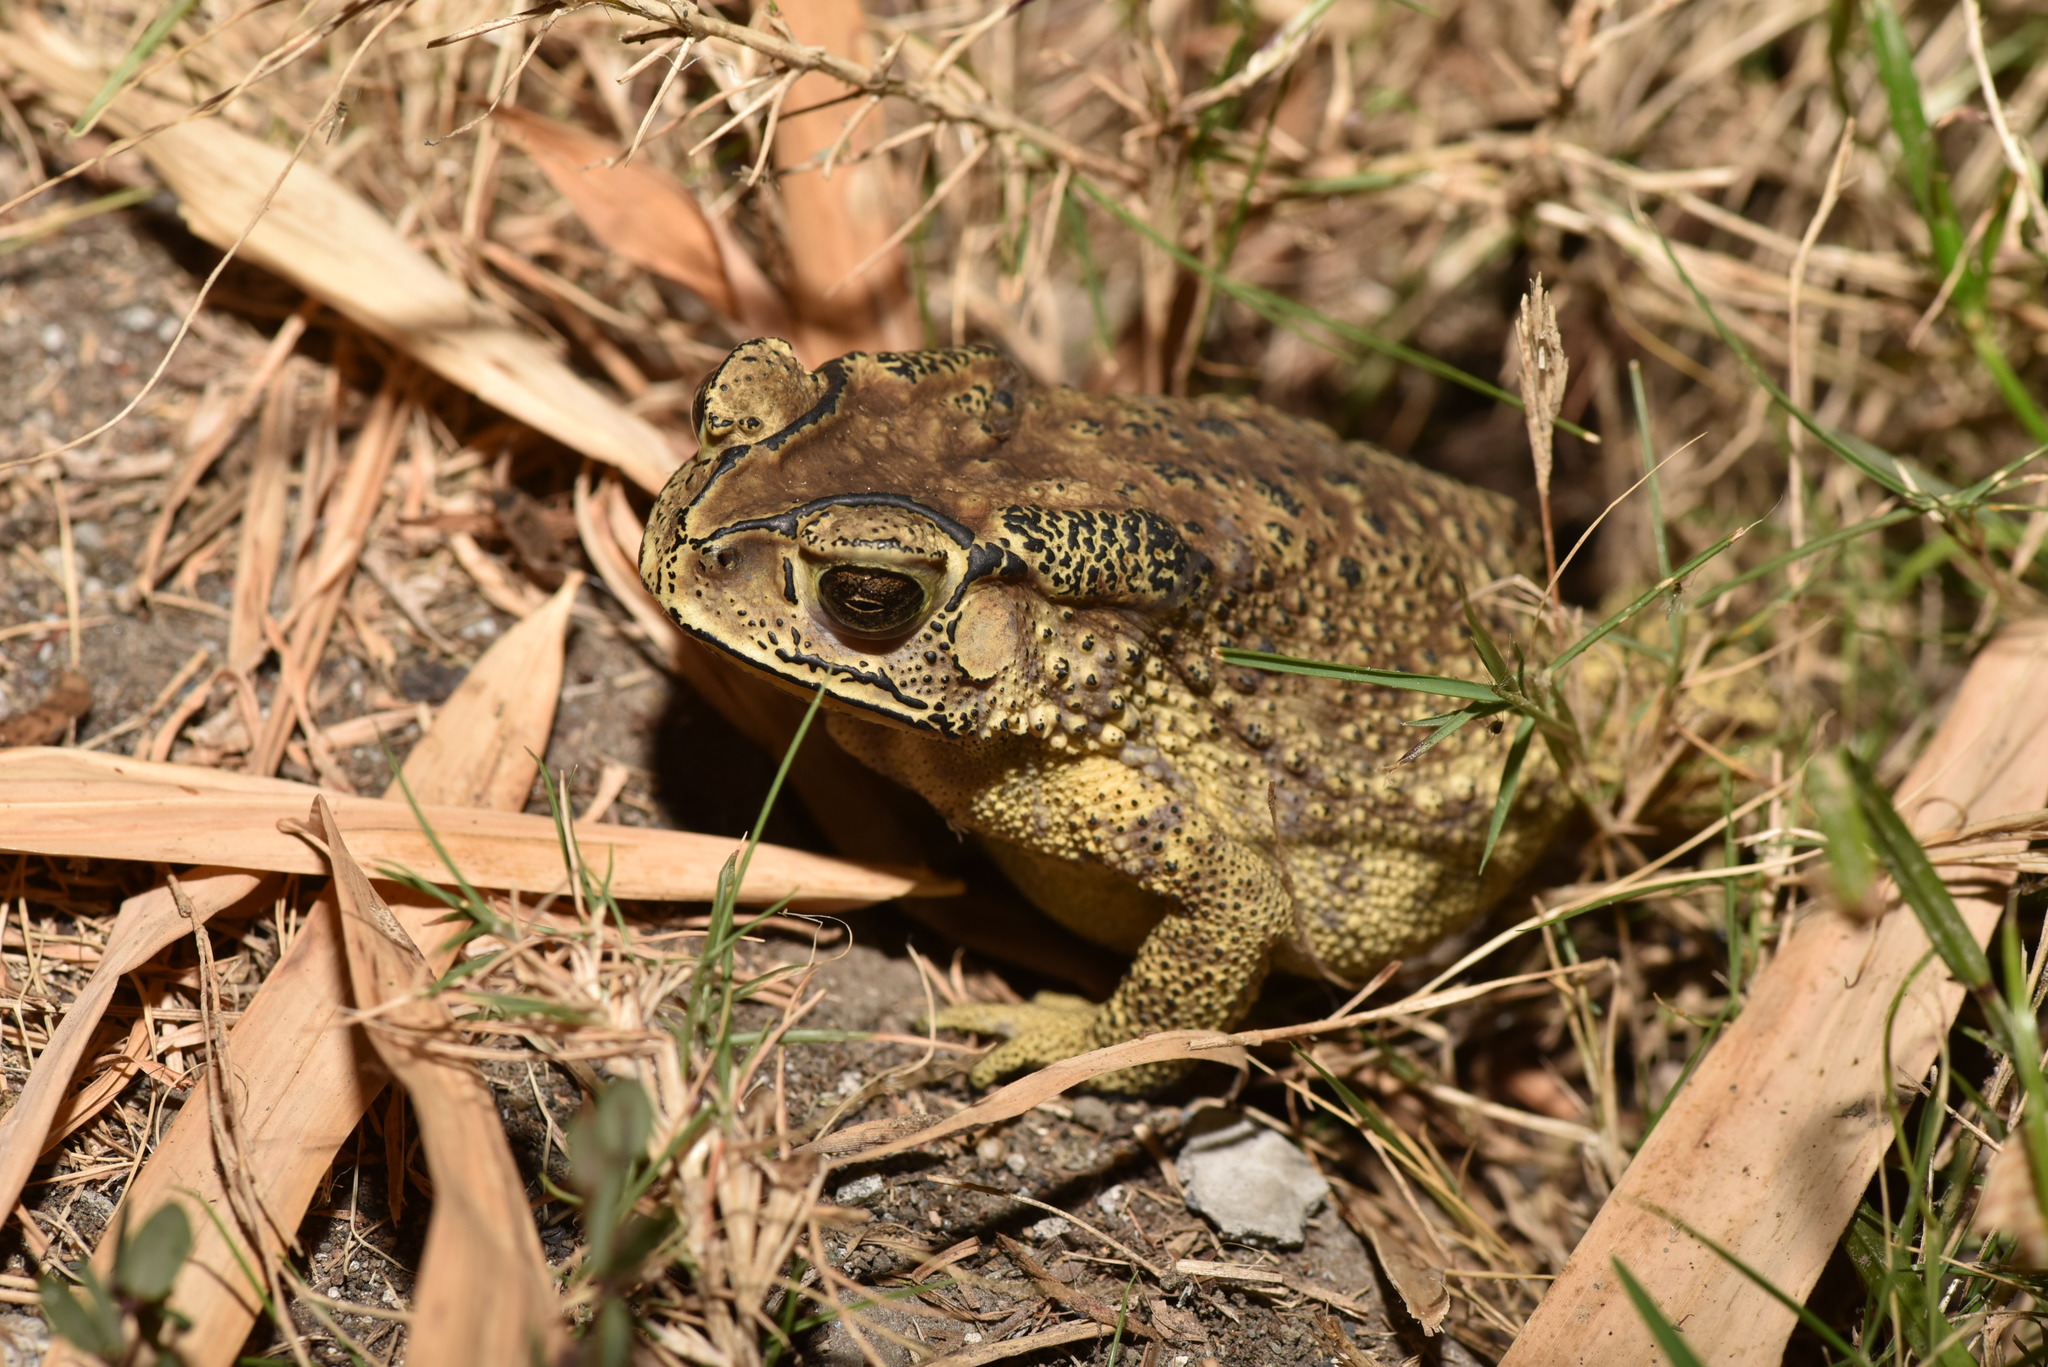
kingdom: Animalia
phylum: Chordata
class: Amphibia
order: Anura
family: Bufonidae
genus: Duttaphrynus
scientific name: Duttaphrynus melanostictus
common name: Common sunda toad
